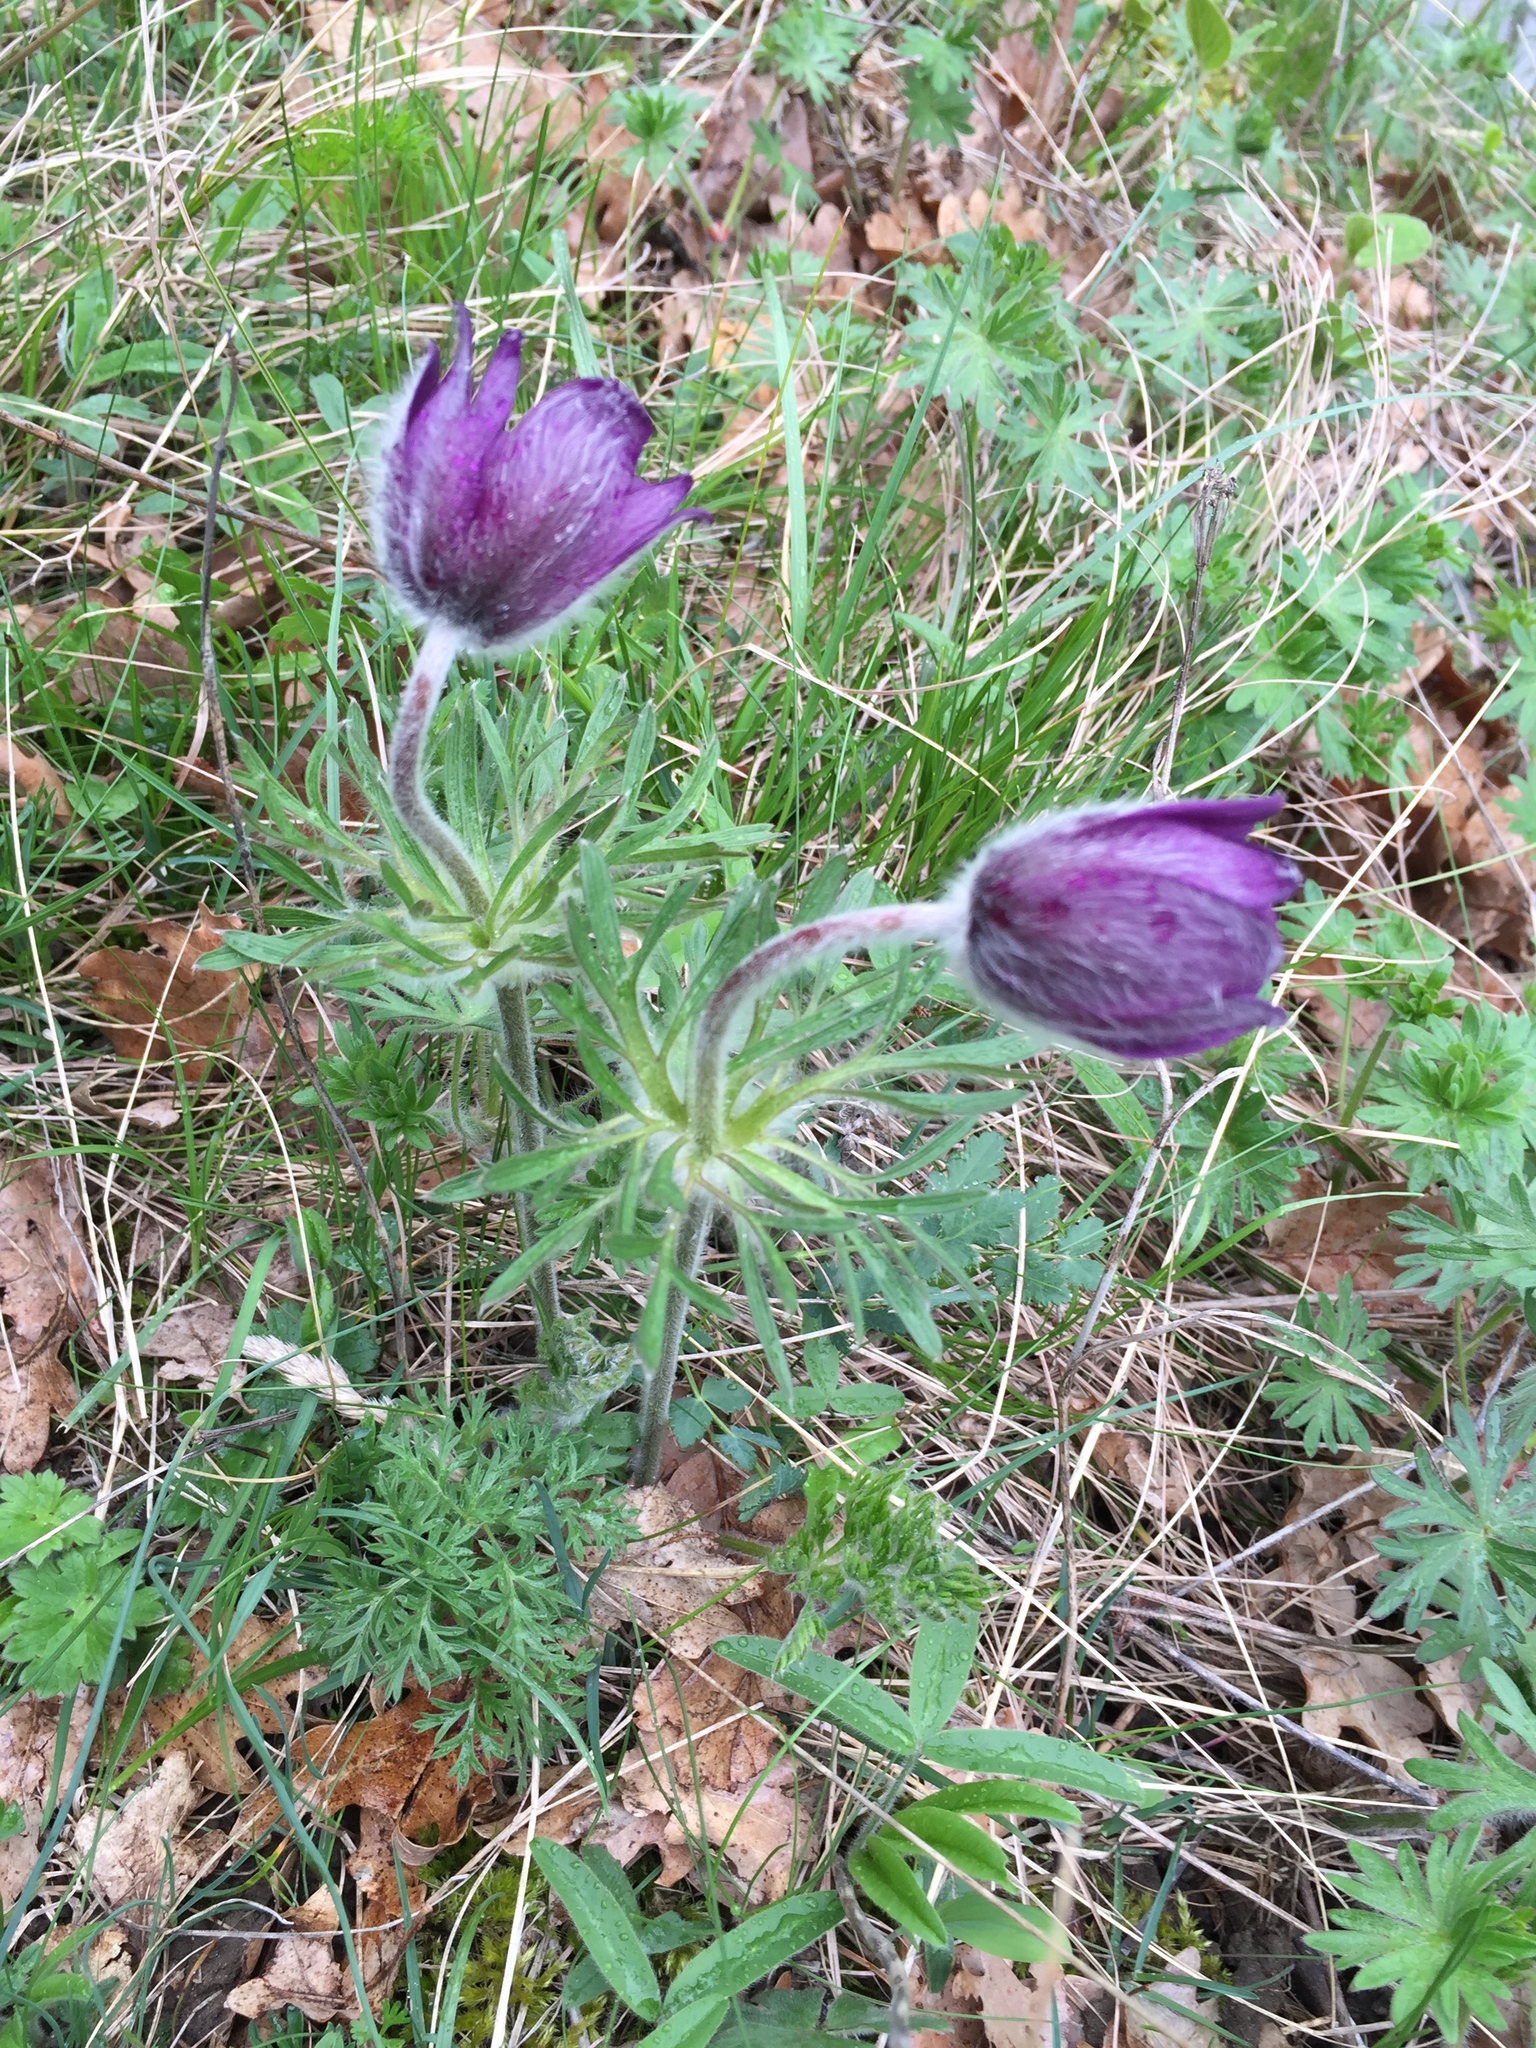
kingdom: Plantae
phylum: Tracheophyta
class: Magnoliopsida
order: Ranunculales
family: Ranunculaceae
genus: Pulsatilla
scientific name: Pulsatilla montana
